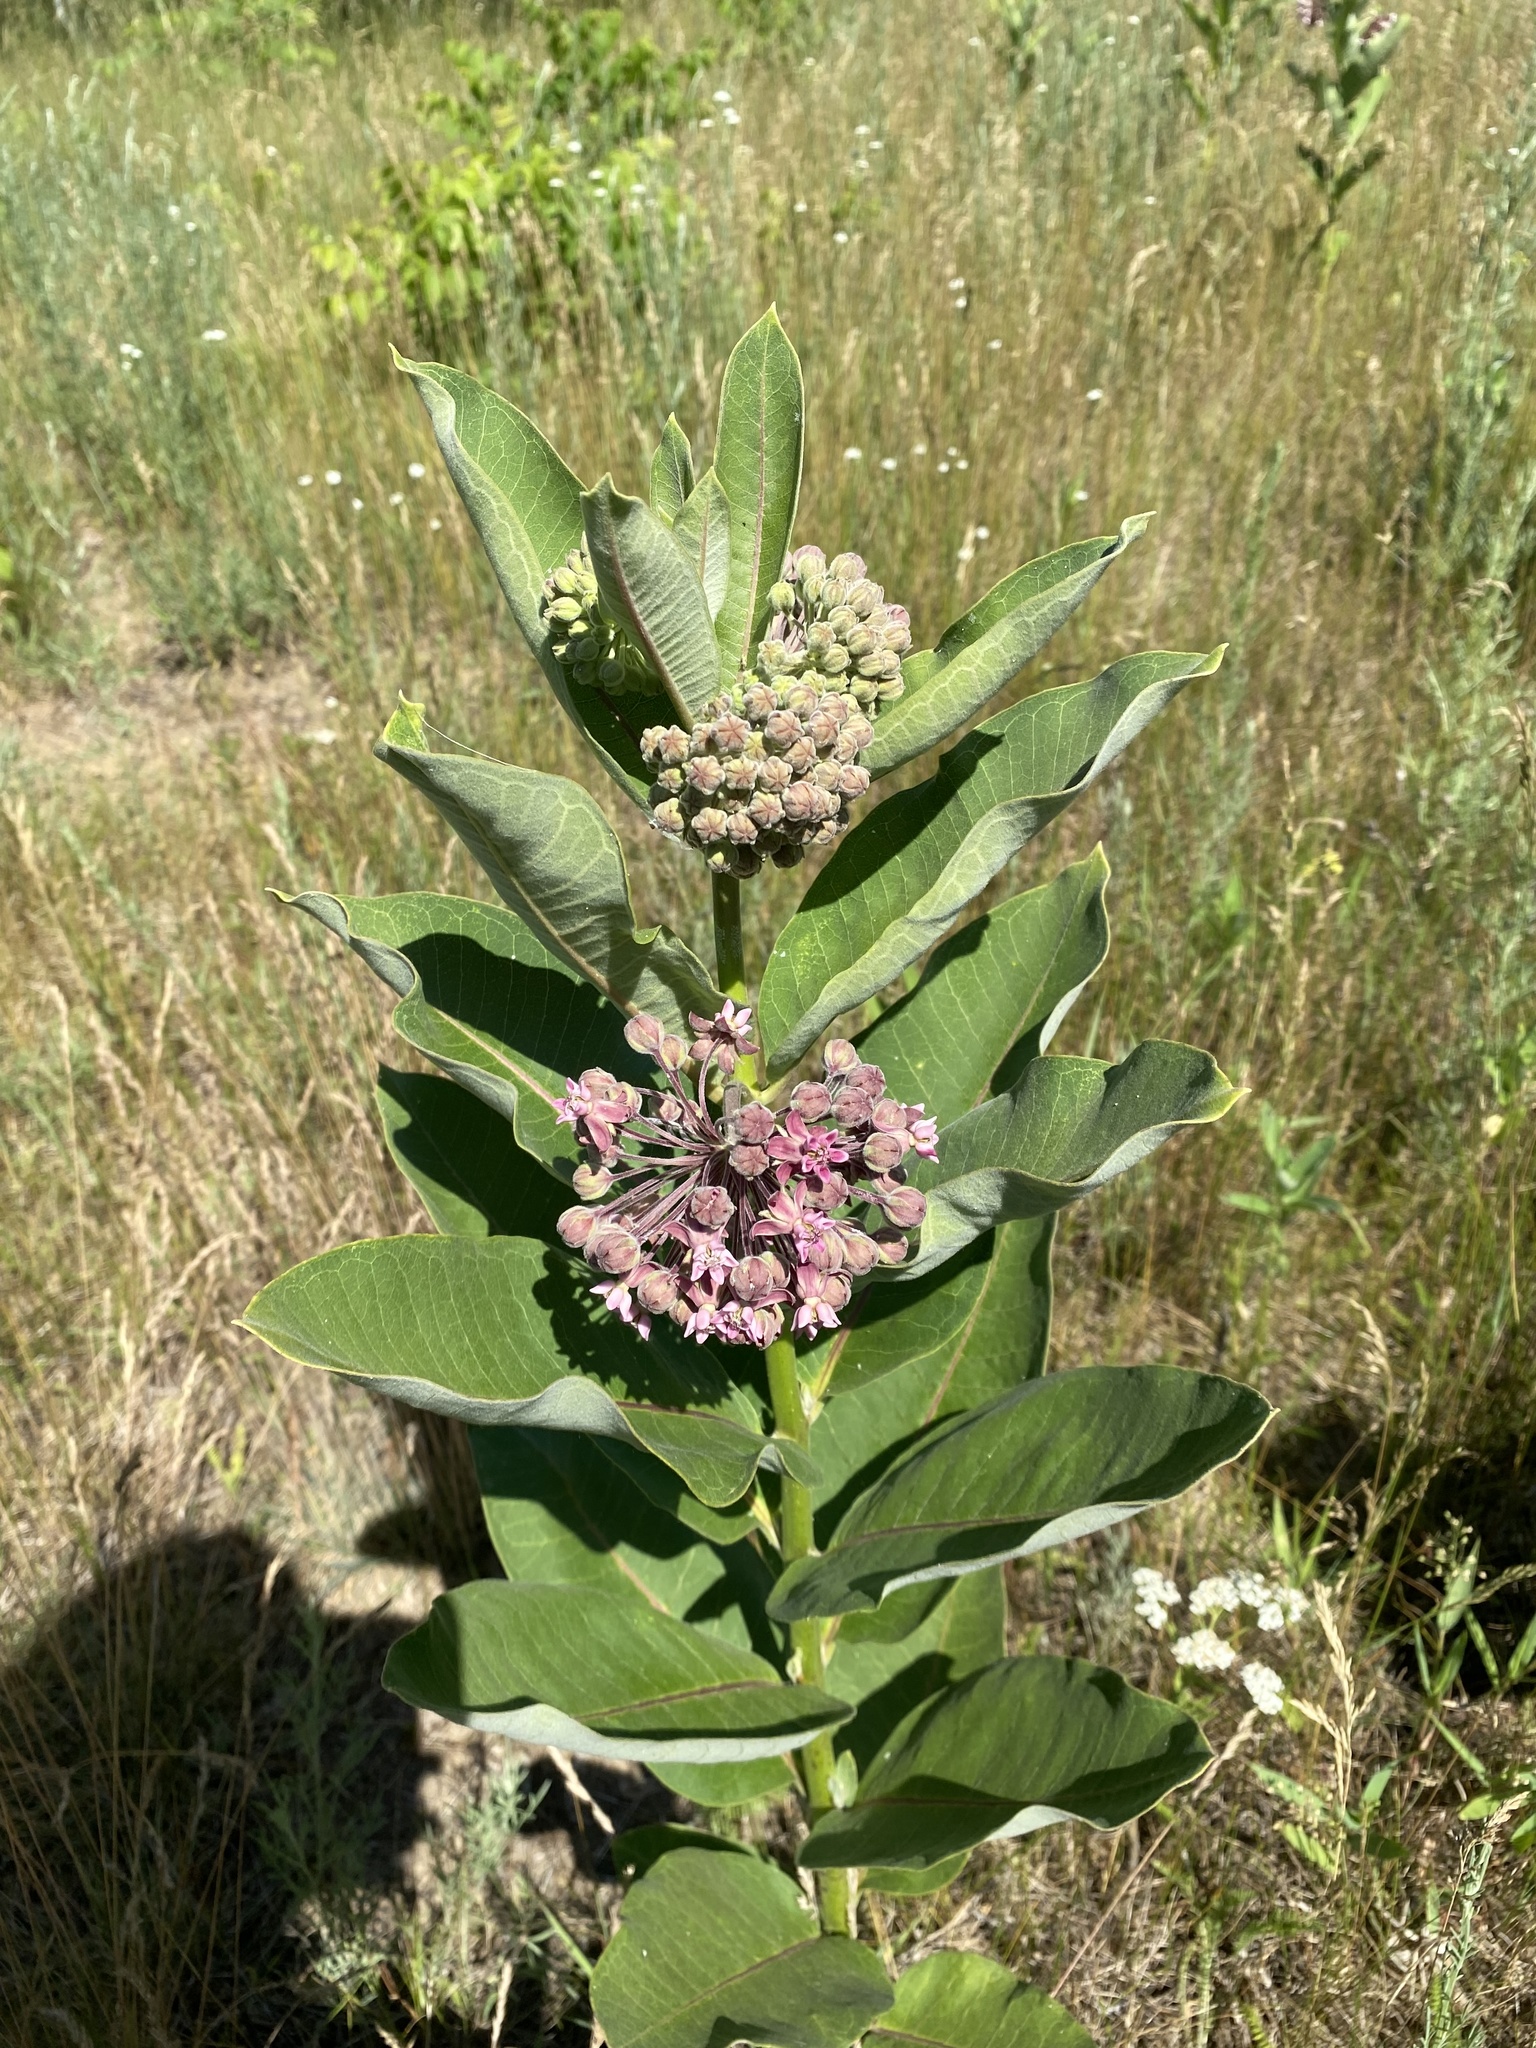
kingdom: Plantae
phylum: Tracheophyta
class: Magnoliopsida
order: Gentianales
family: Apocynaceae
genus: Asclepias
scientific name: Asclepias syriaca
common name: Common milkweed
